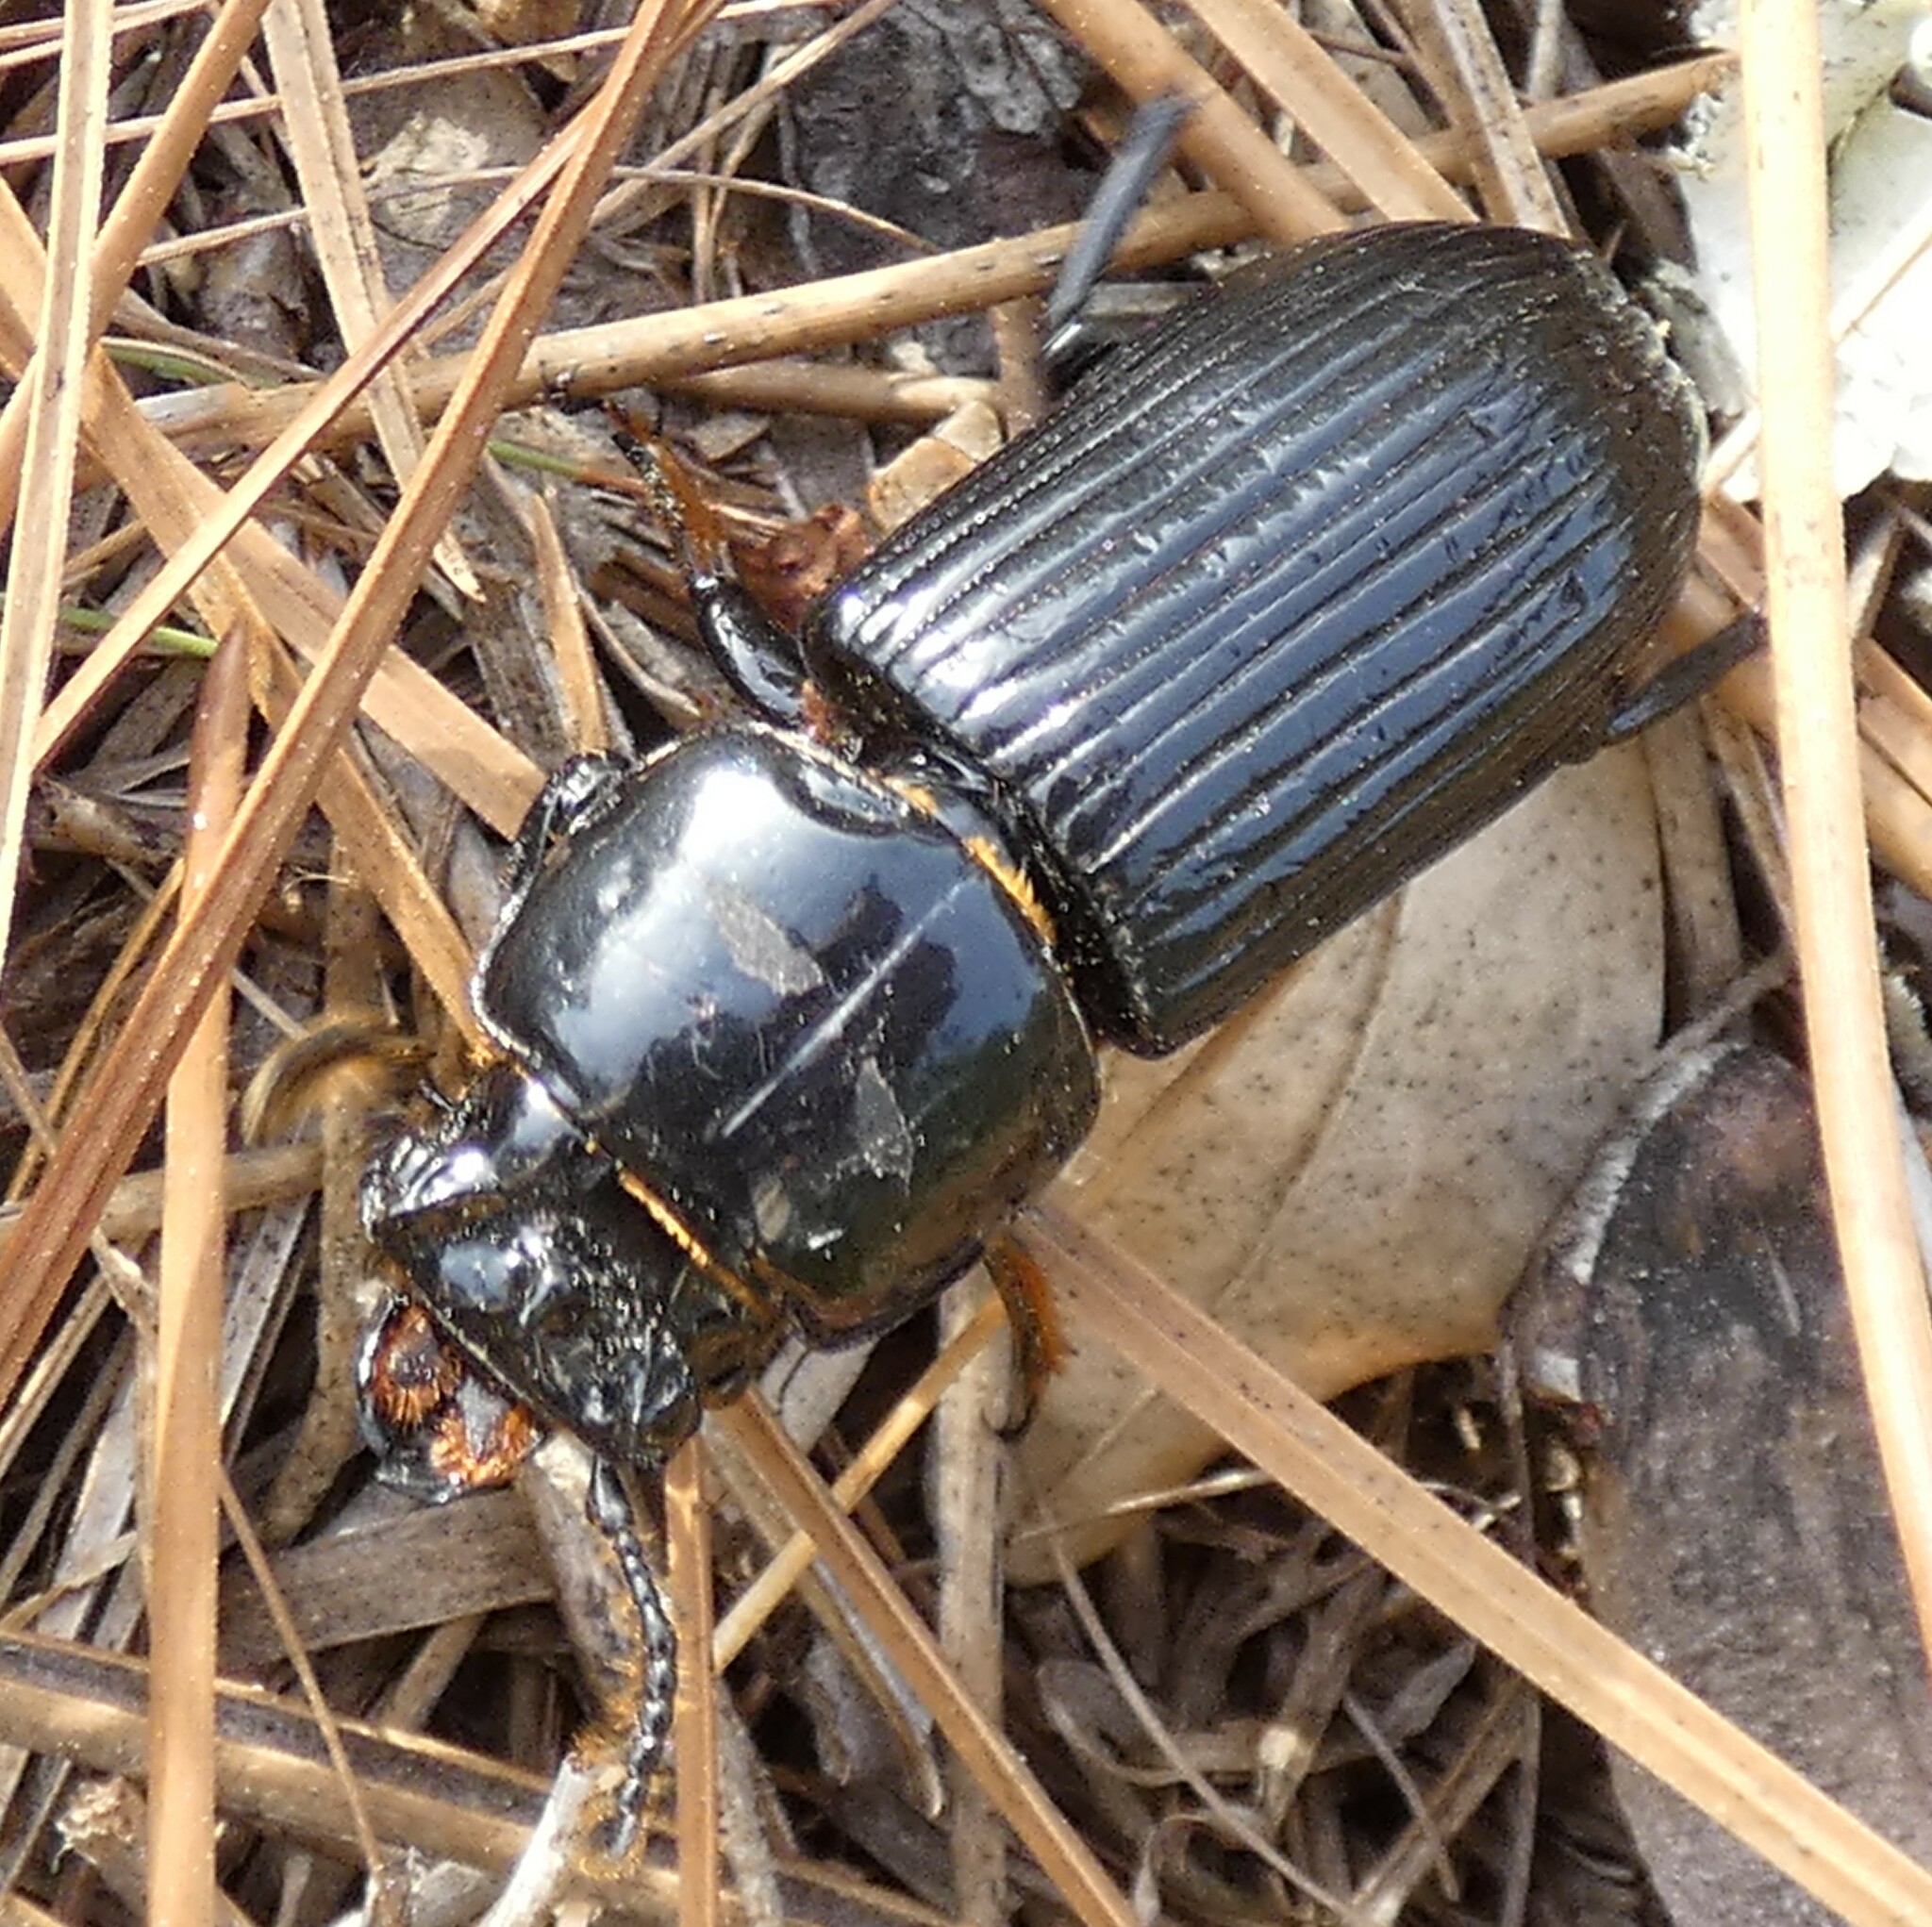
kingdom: Animalia
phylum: Arthropoda
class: Insecta
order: Coleoptera
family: Passalidae
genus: Odontotaenius
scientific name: Odontotaenius disjunctus
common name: Patent leather beetle
